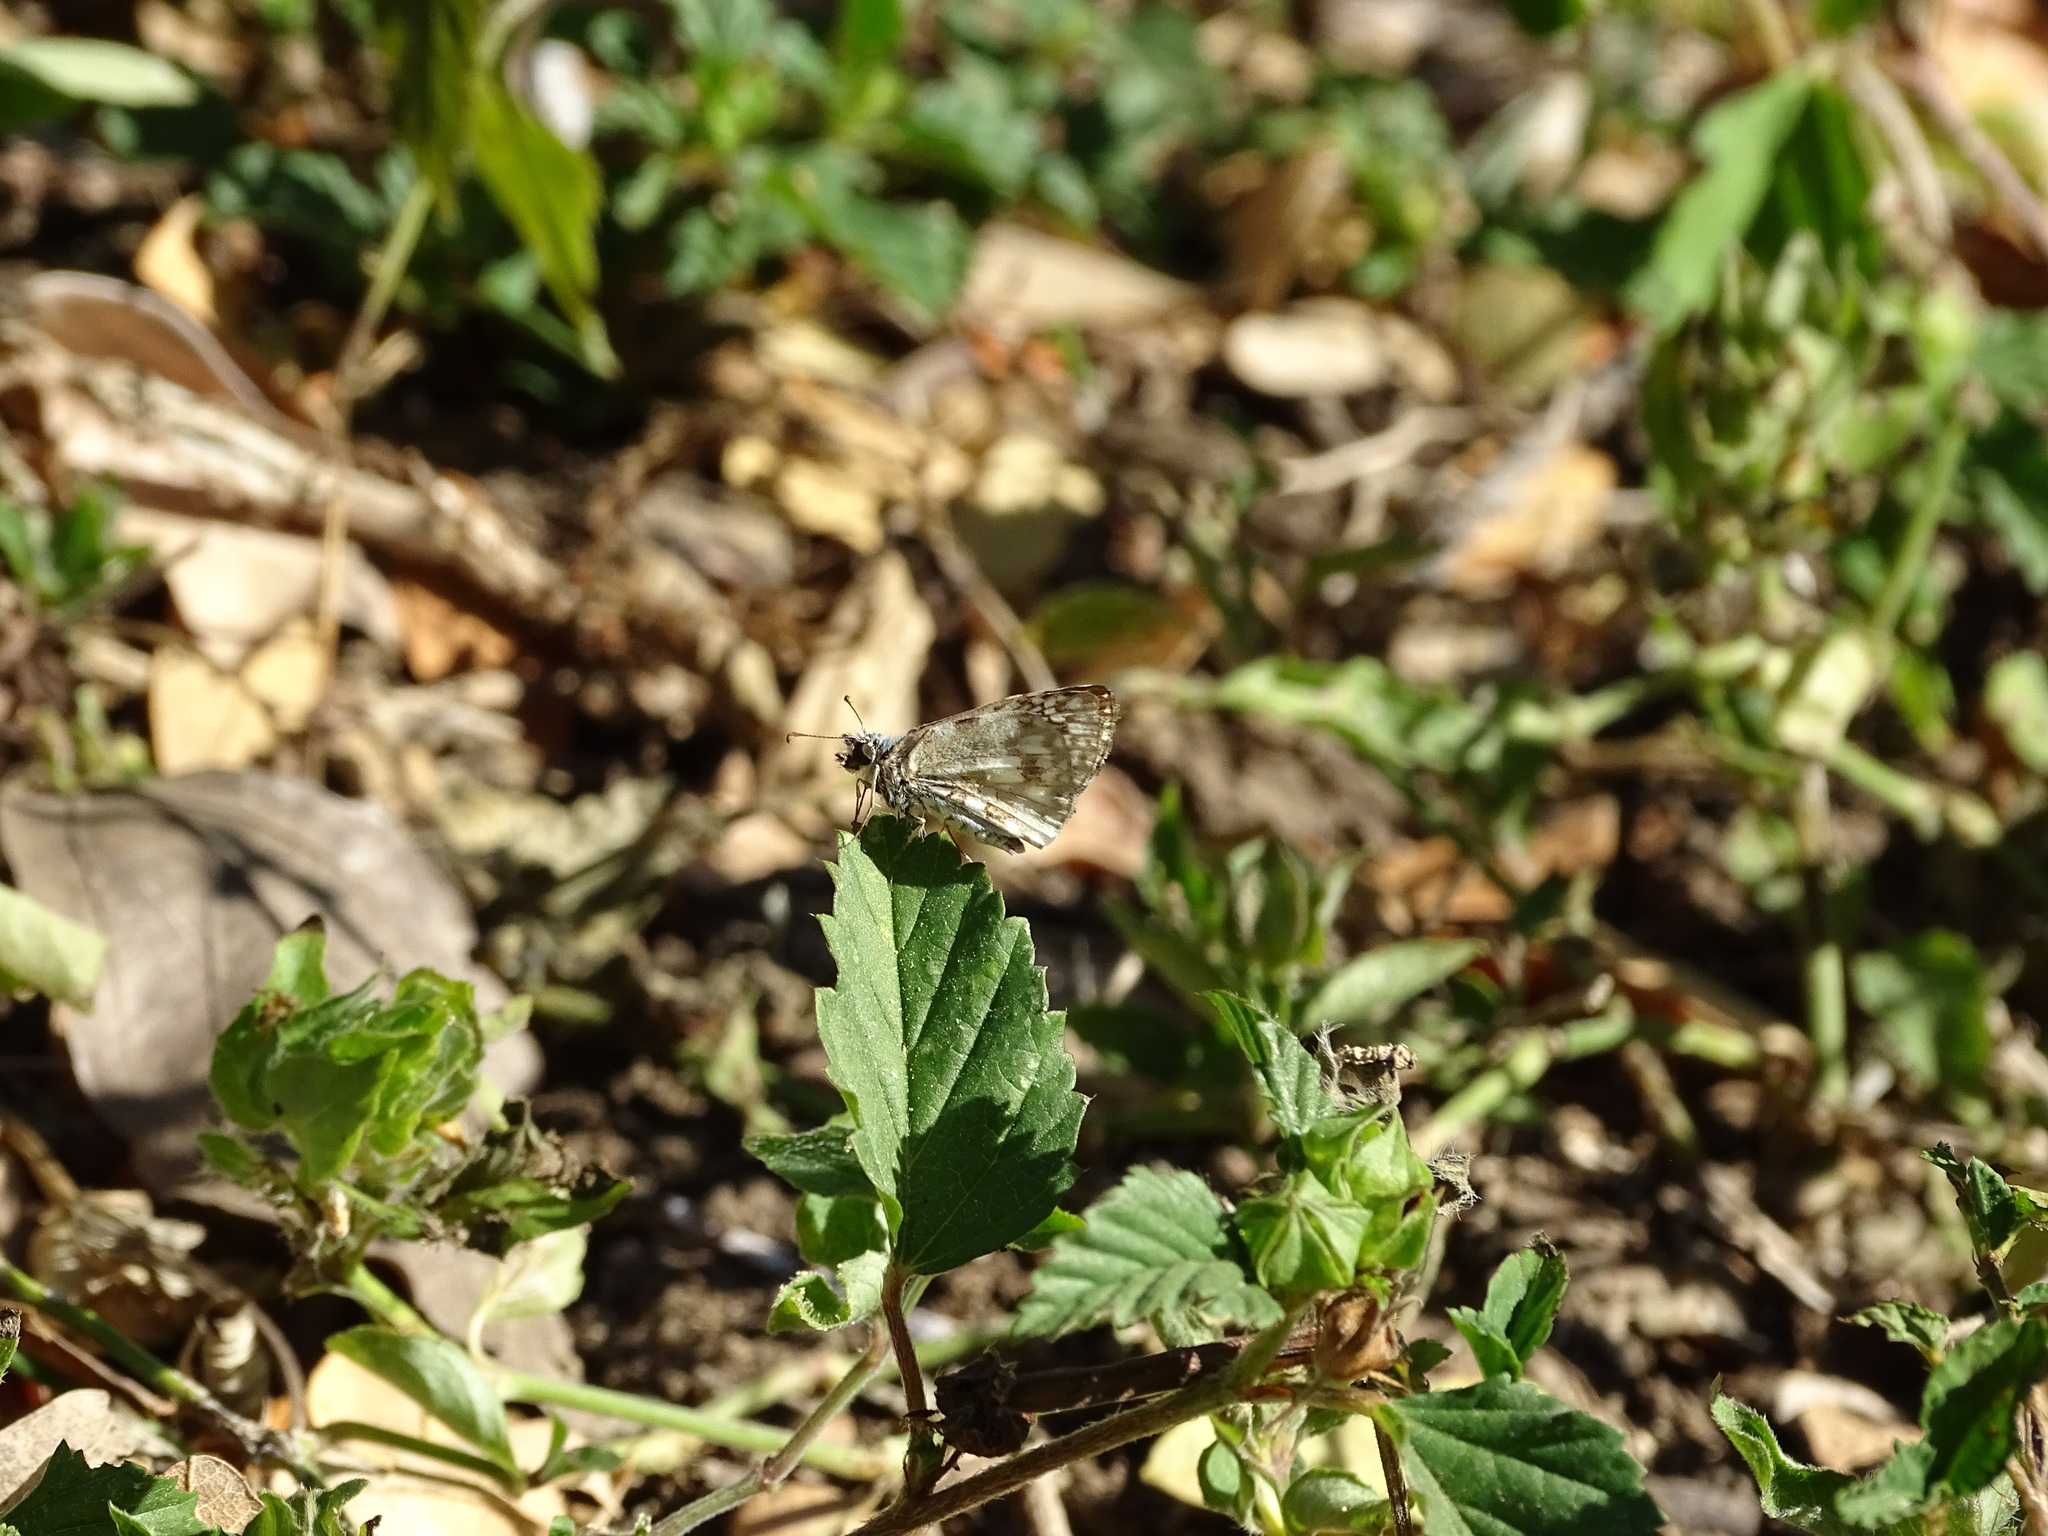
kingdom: Animalia
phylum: Arthropoda
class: Insecta
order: Lepidoptera
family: Hesperiidae
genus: Pyrgus
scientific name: Pyrgus oileus
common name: Tropical checkered-skipper
